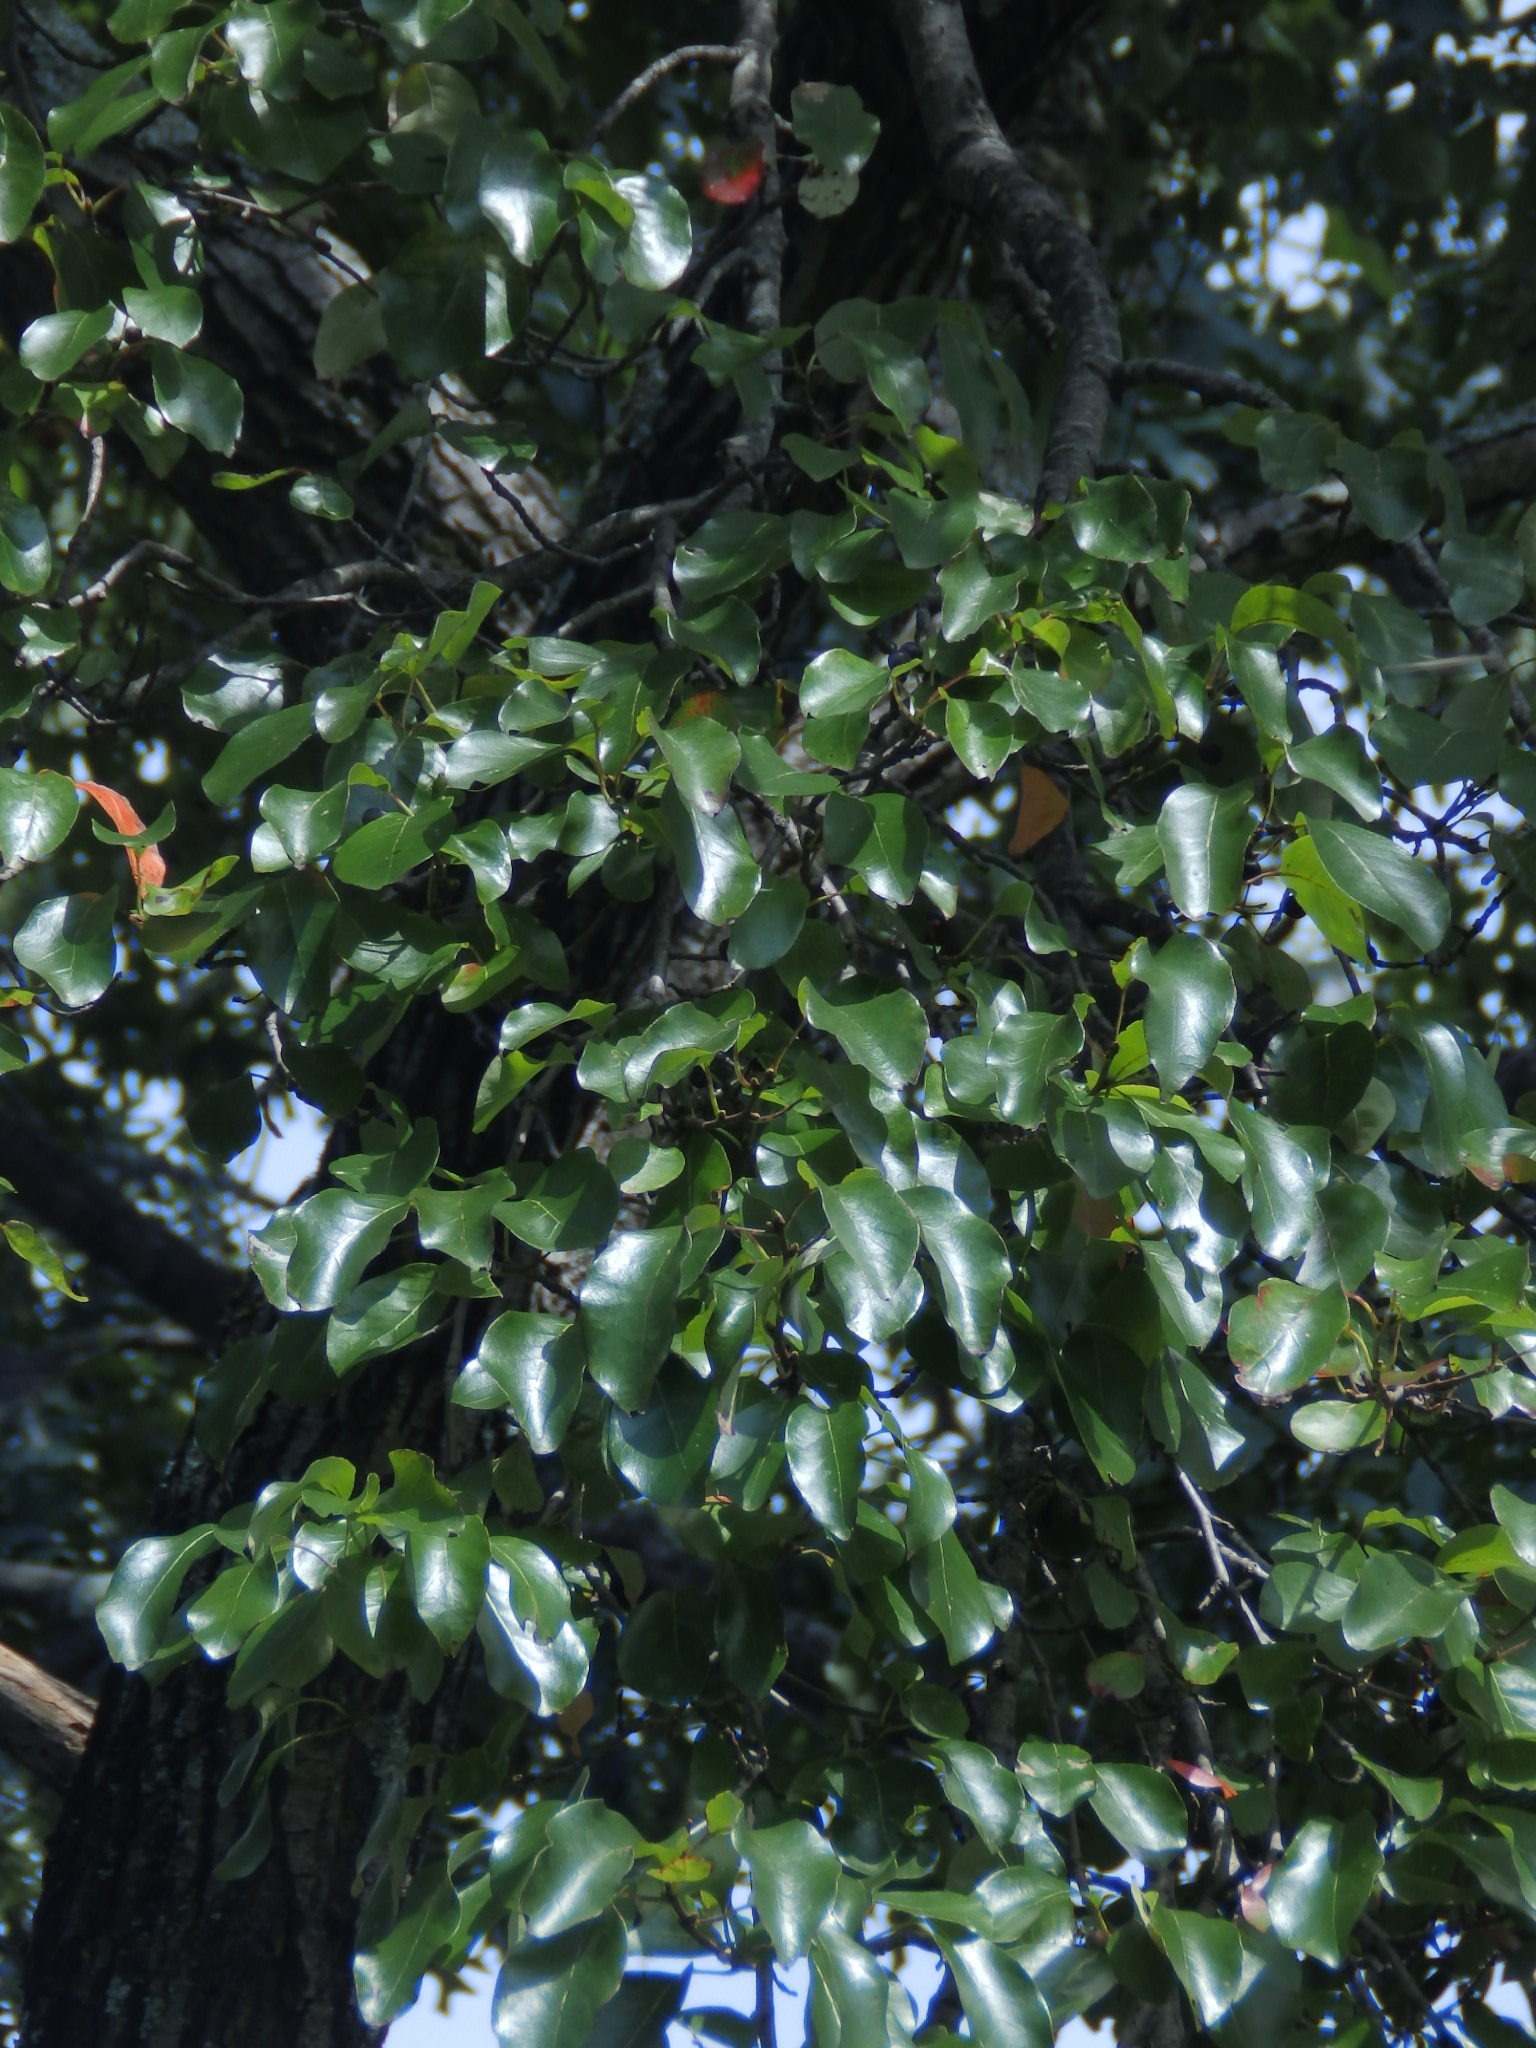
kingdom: Plantae
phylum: Tracheophyta
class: Magnoliopsida
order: Cornales
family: Nyssaceae
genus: Nyssa
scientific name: Nyssa sylvatica
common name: Black tupelo
